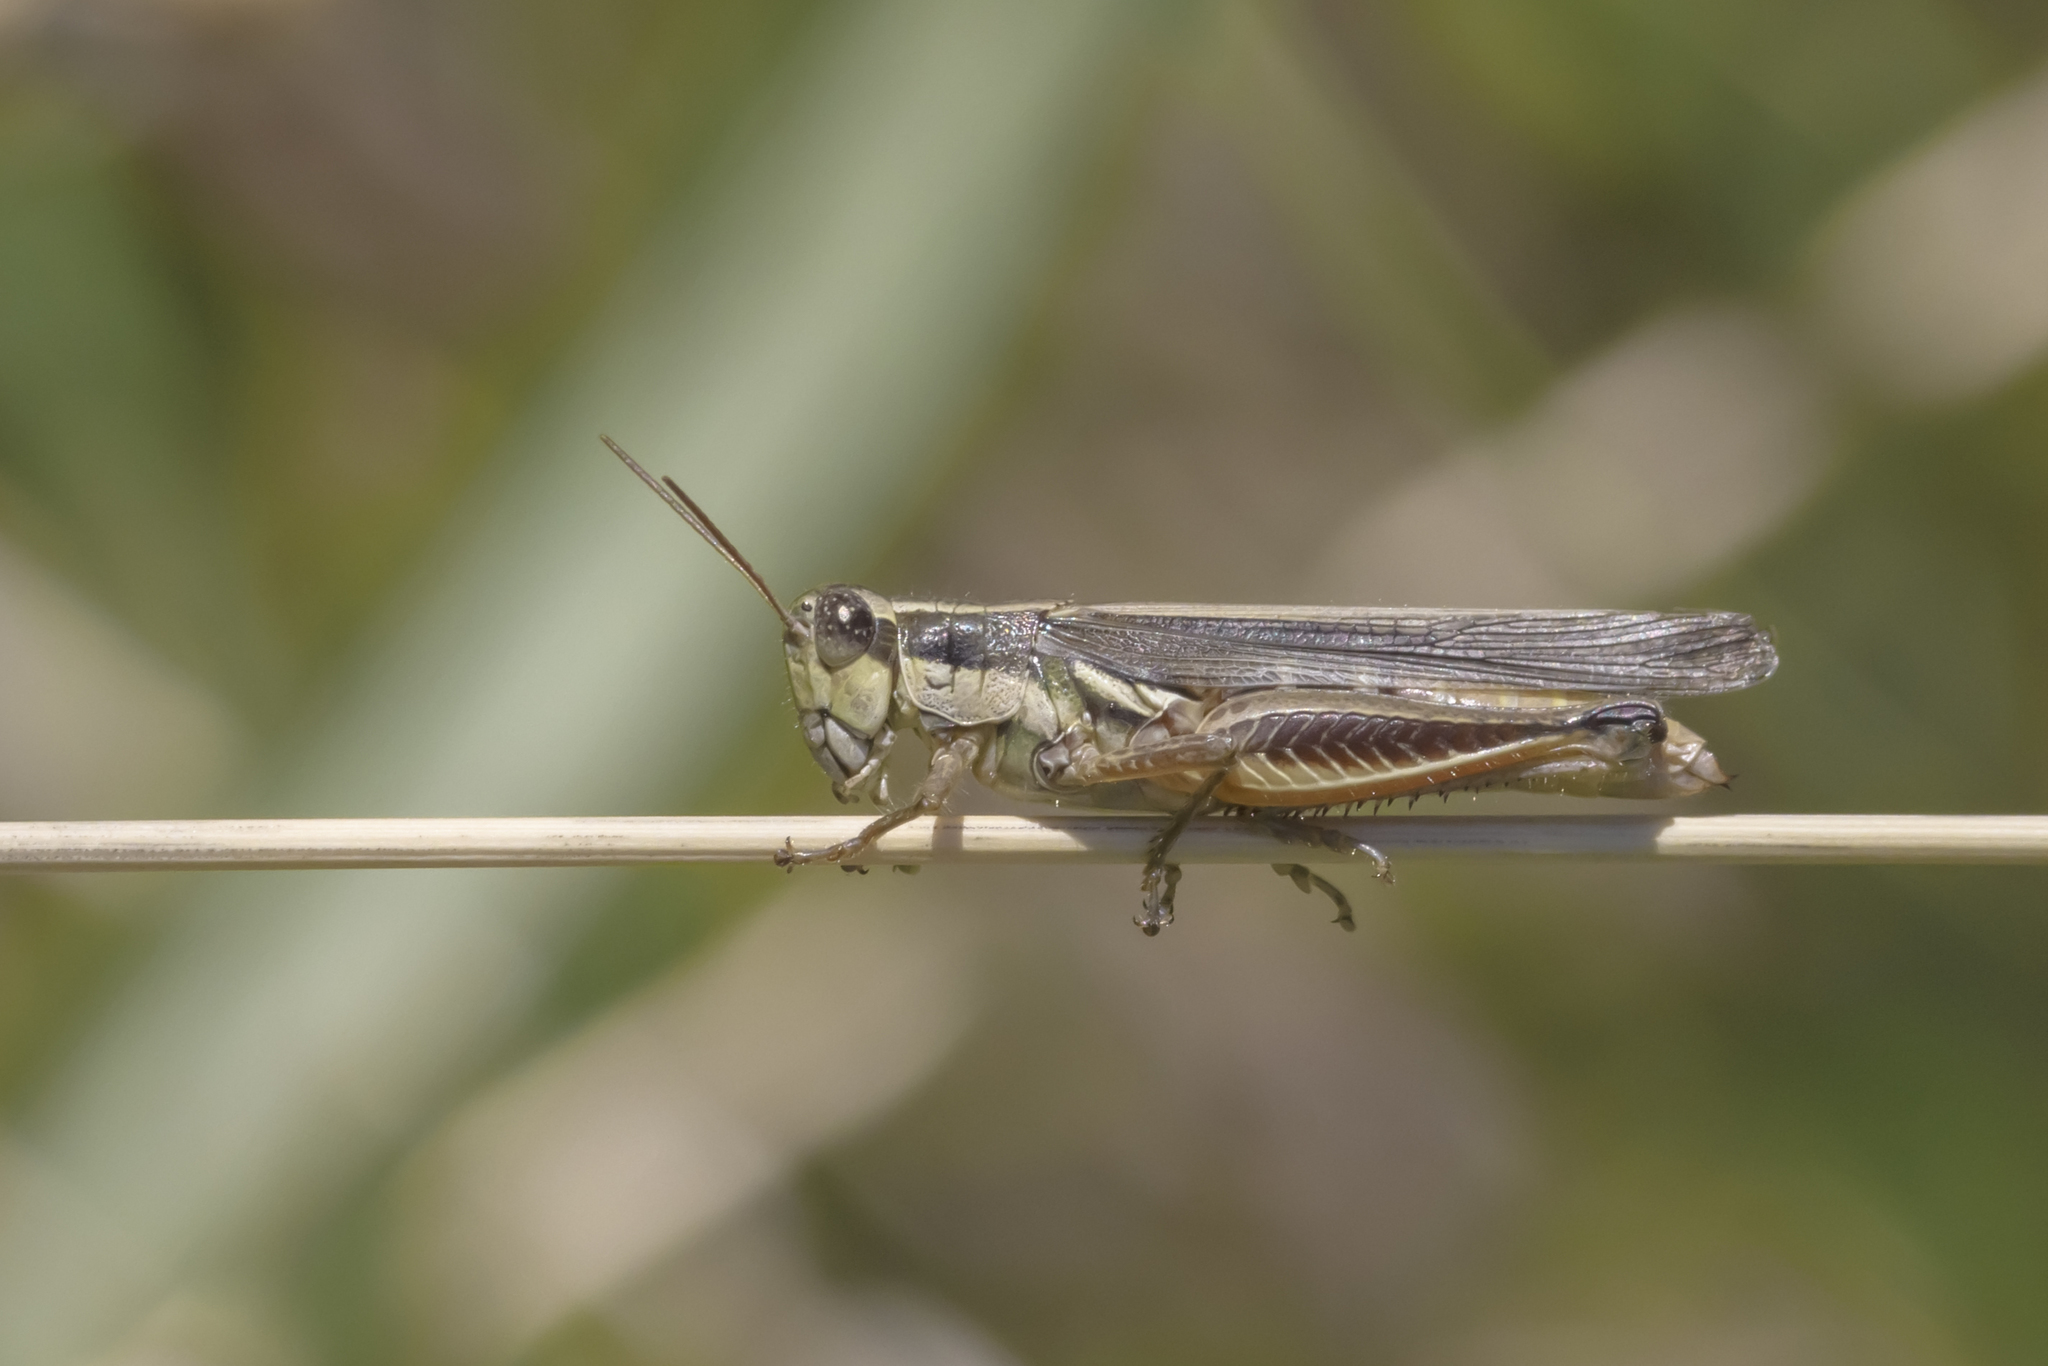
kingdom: Animalia
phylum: Arthropoda
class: Insecta
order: Orthoptera
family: Acrididae
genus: Dichroplus
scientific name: Dichroplus elongatus
